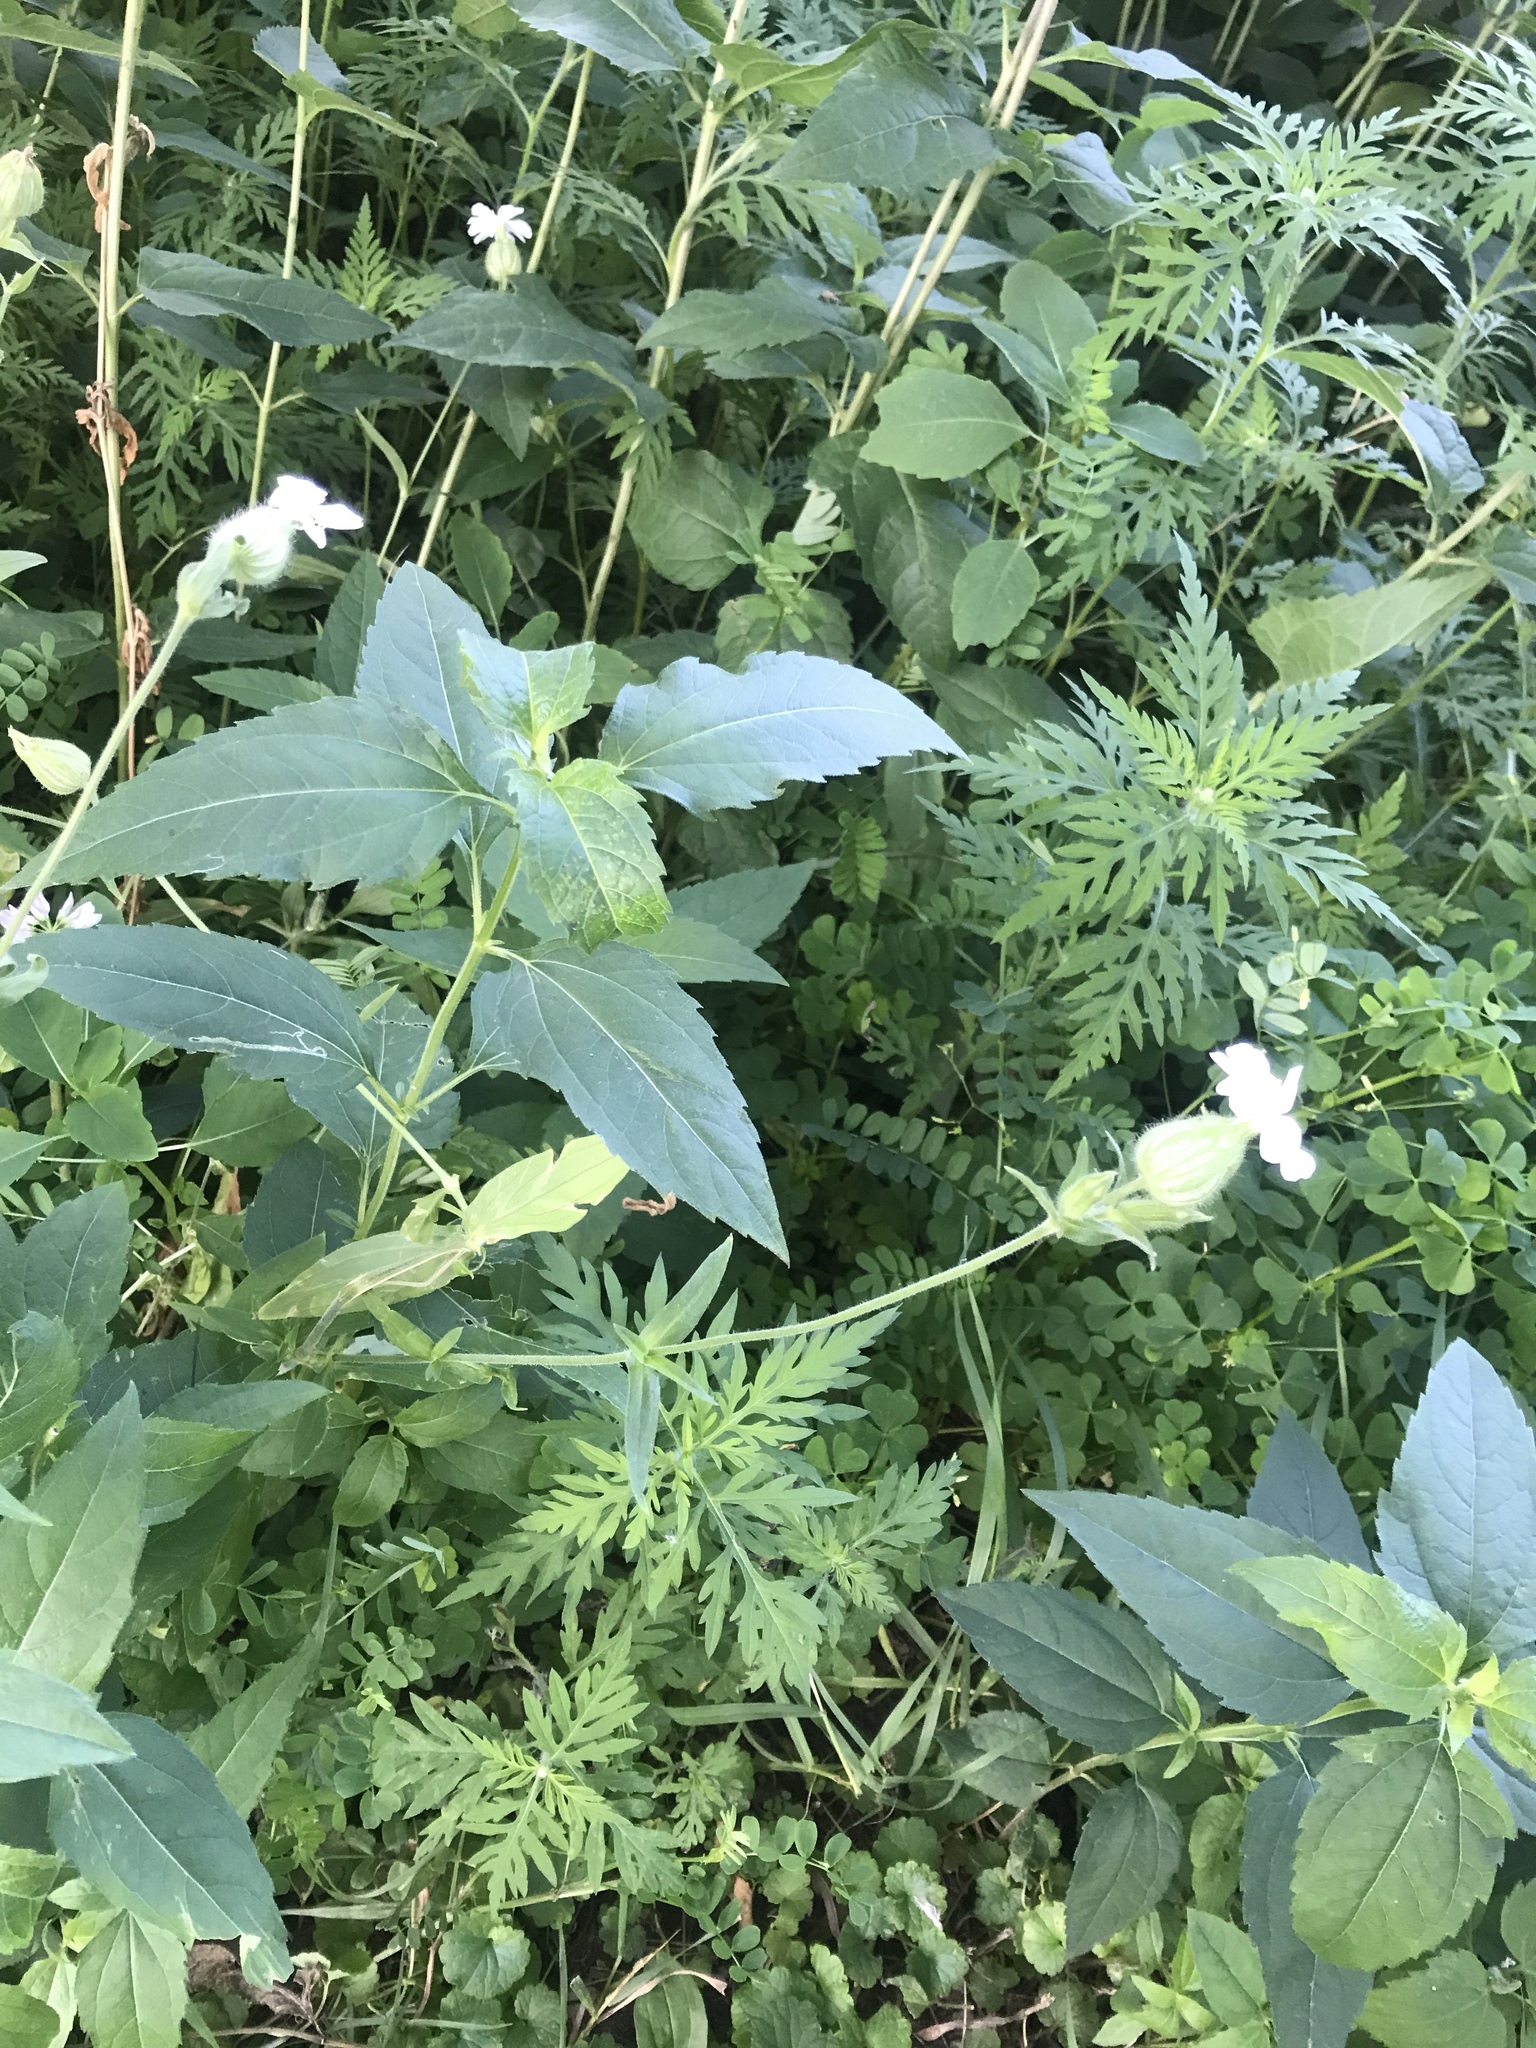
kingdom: Plantae
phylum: Tracheophyta
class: Magnoliopsida
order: Caryophyllales
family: Caryophyllaceae
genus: Silene
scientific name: Silene latifolia
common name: White campion
